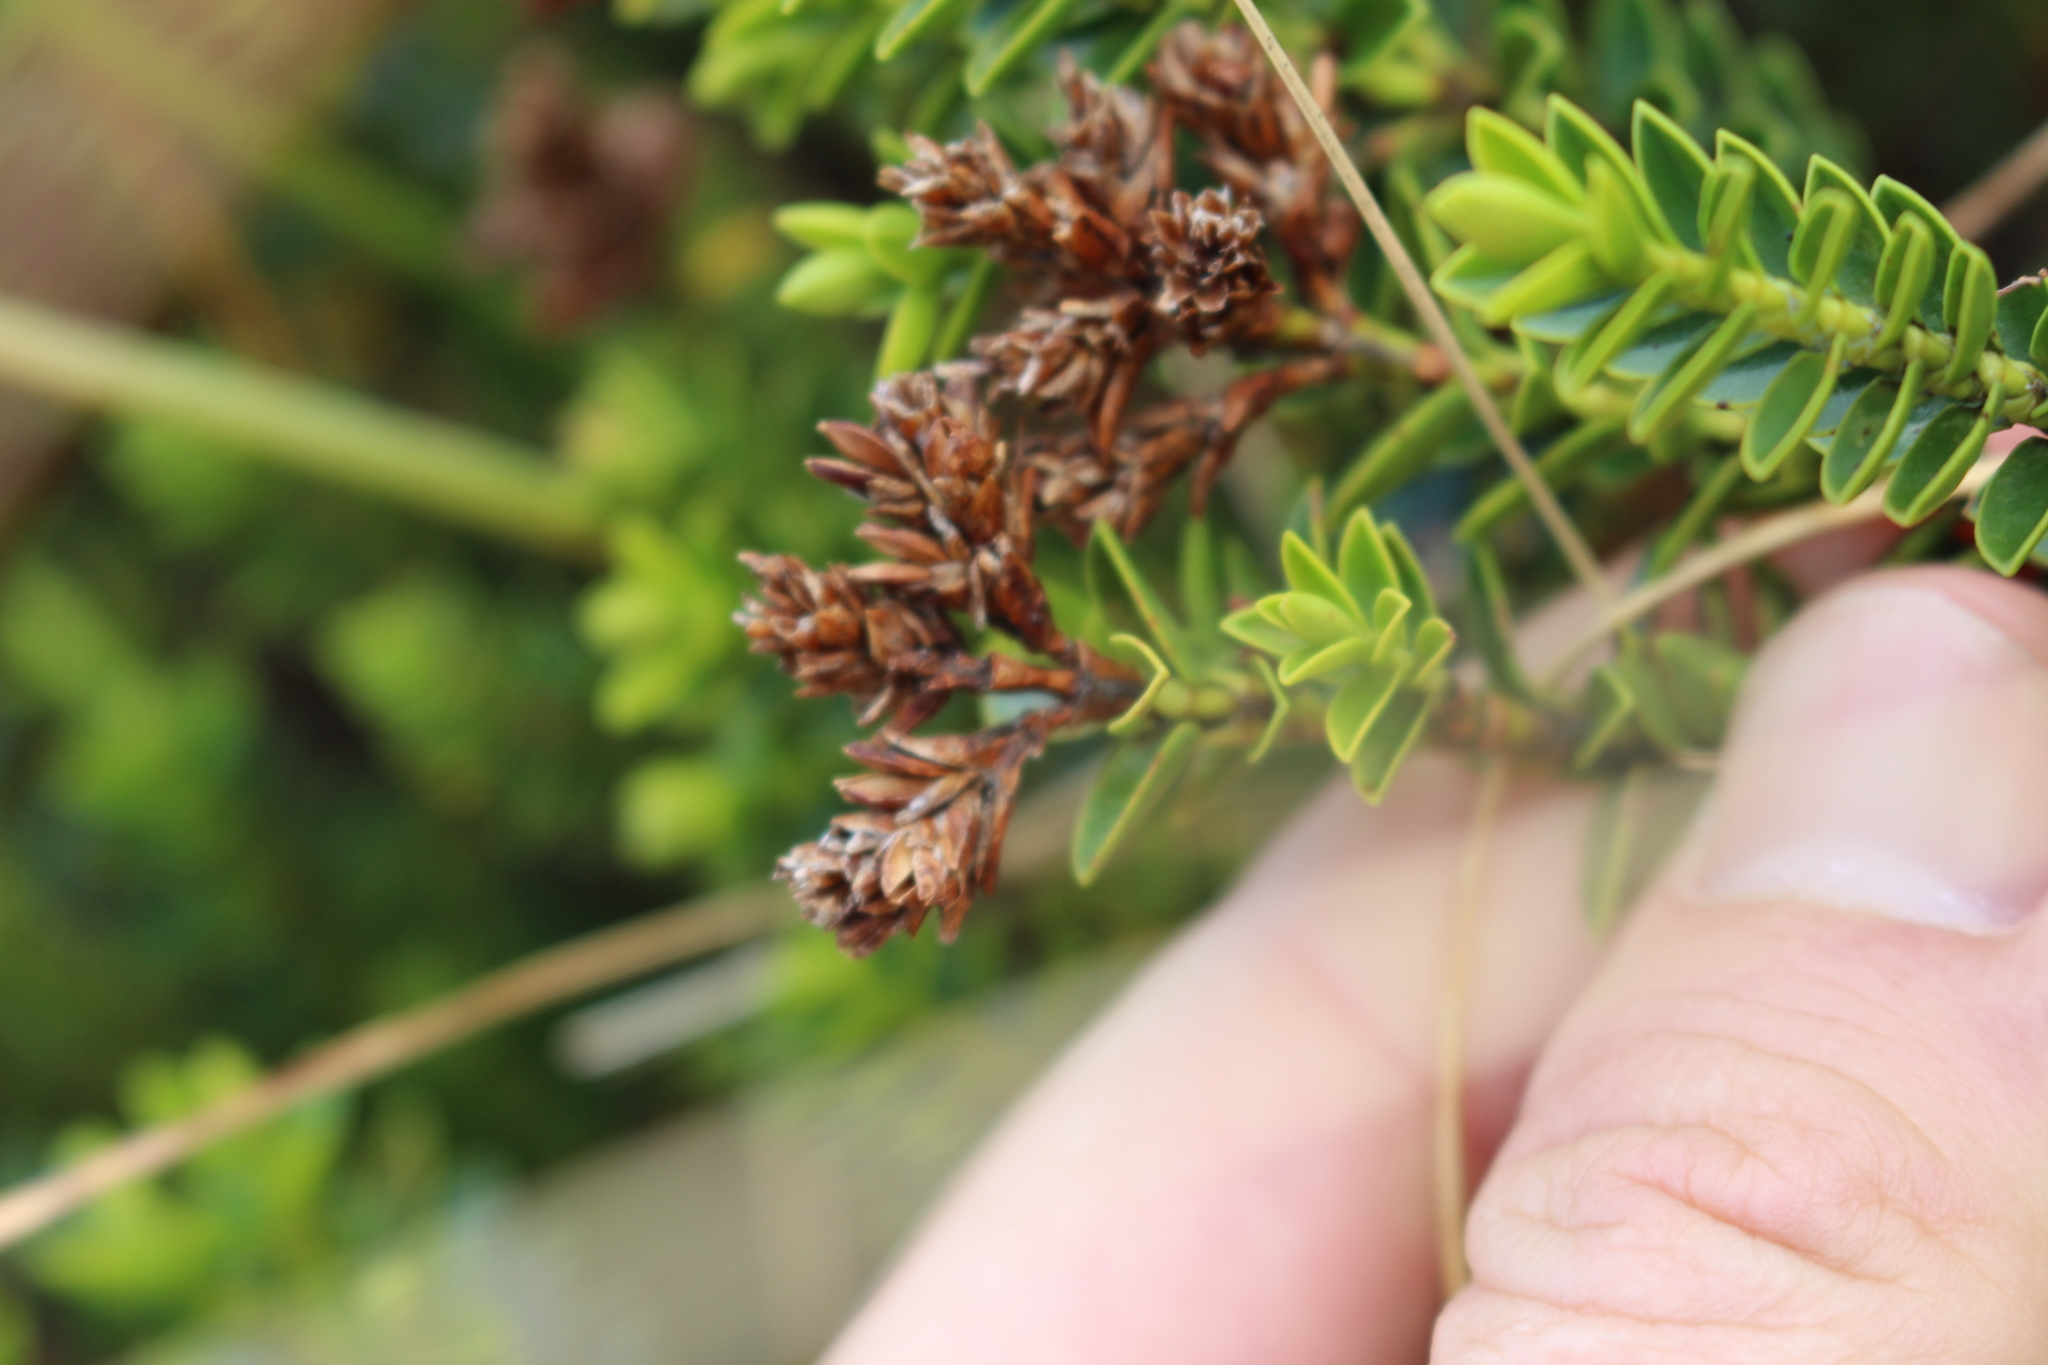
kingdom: Plantae
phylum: Tracheophyta
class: Magnoliopsida
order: Lamiales
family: Plantaginaceae
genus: Veronica
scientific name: Veronica odora
